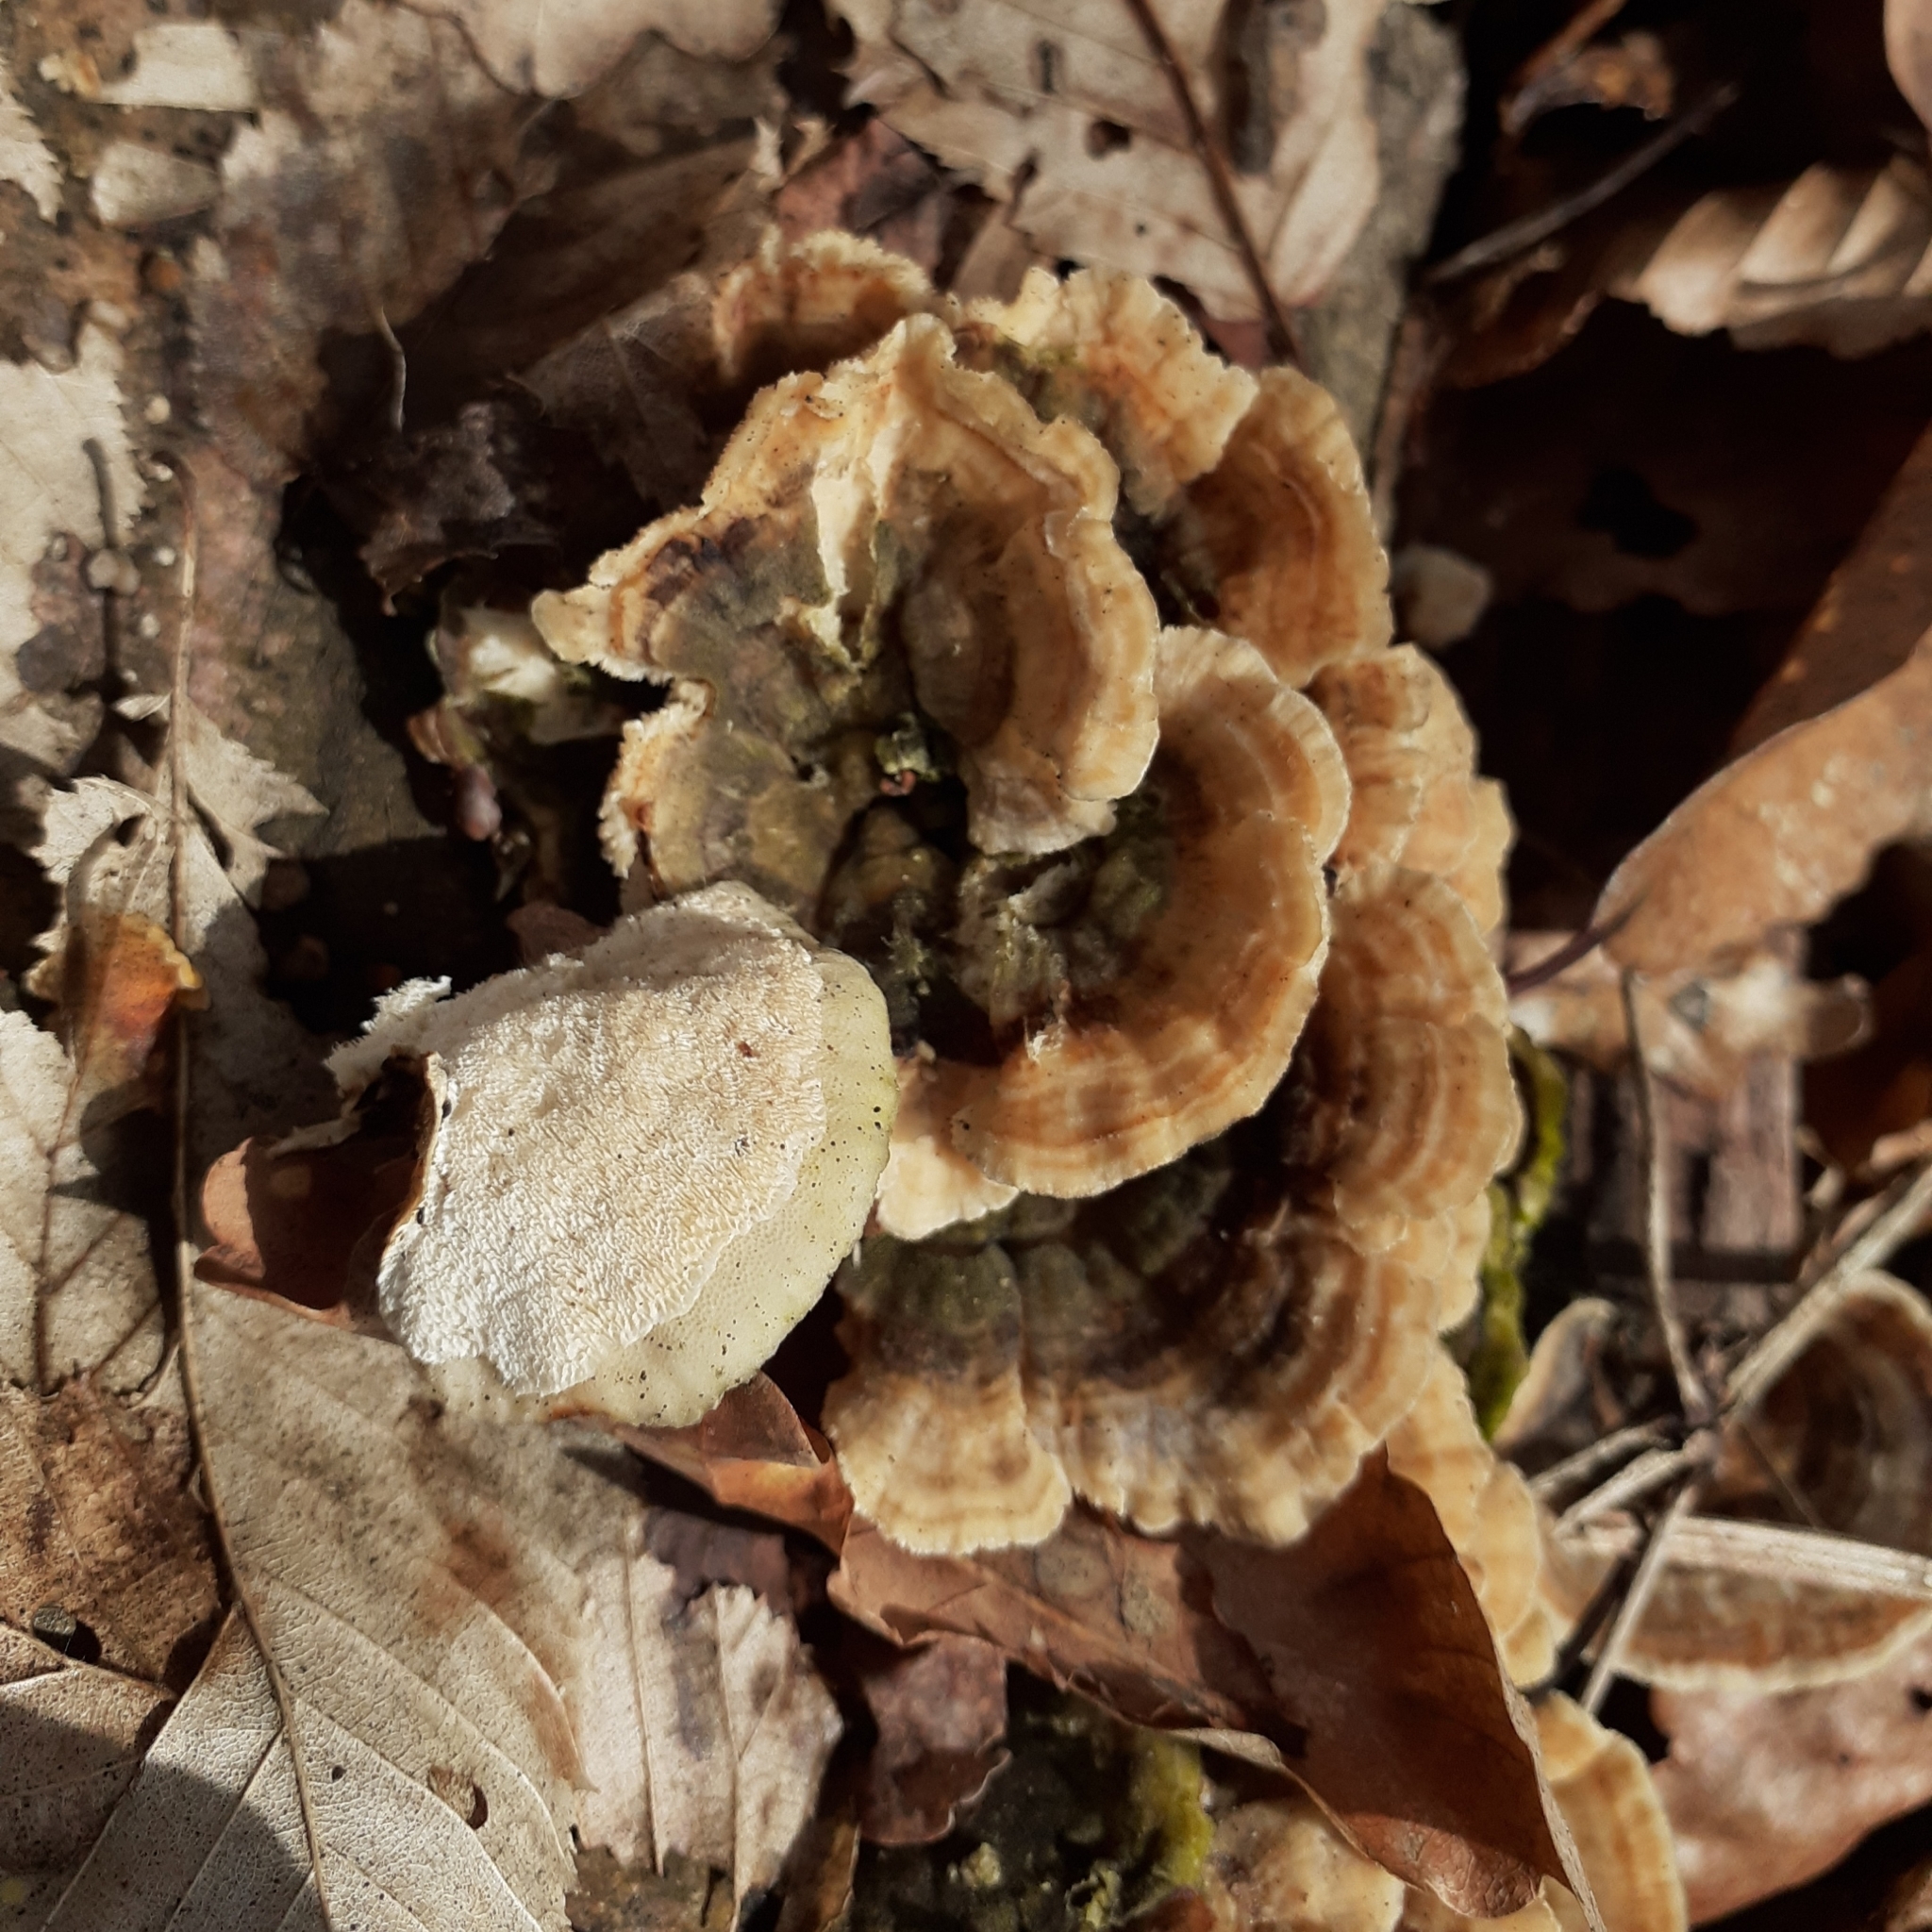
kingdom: Fungi
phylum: Basidiomycota
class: Agaricomycetes
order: Polyporales
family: Polyporaceae
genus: Trametes
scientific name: Trametes ochracea
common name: Ochre bracket
